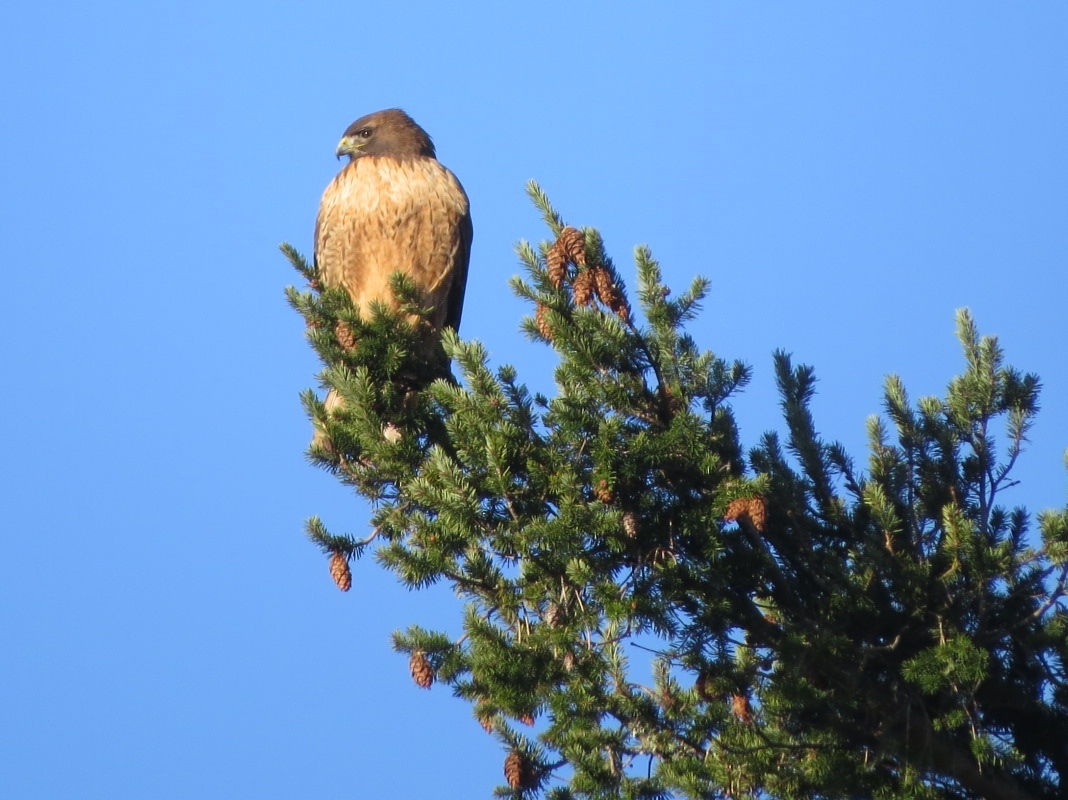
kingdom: Animalia
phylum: Chordata
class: Aves
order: Accipitriformes
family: Accipitridae
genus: Buteo
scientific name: Buteo jamaicensis
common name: Red-tailed hawk
